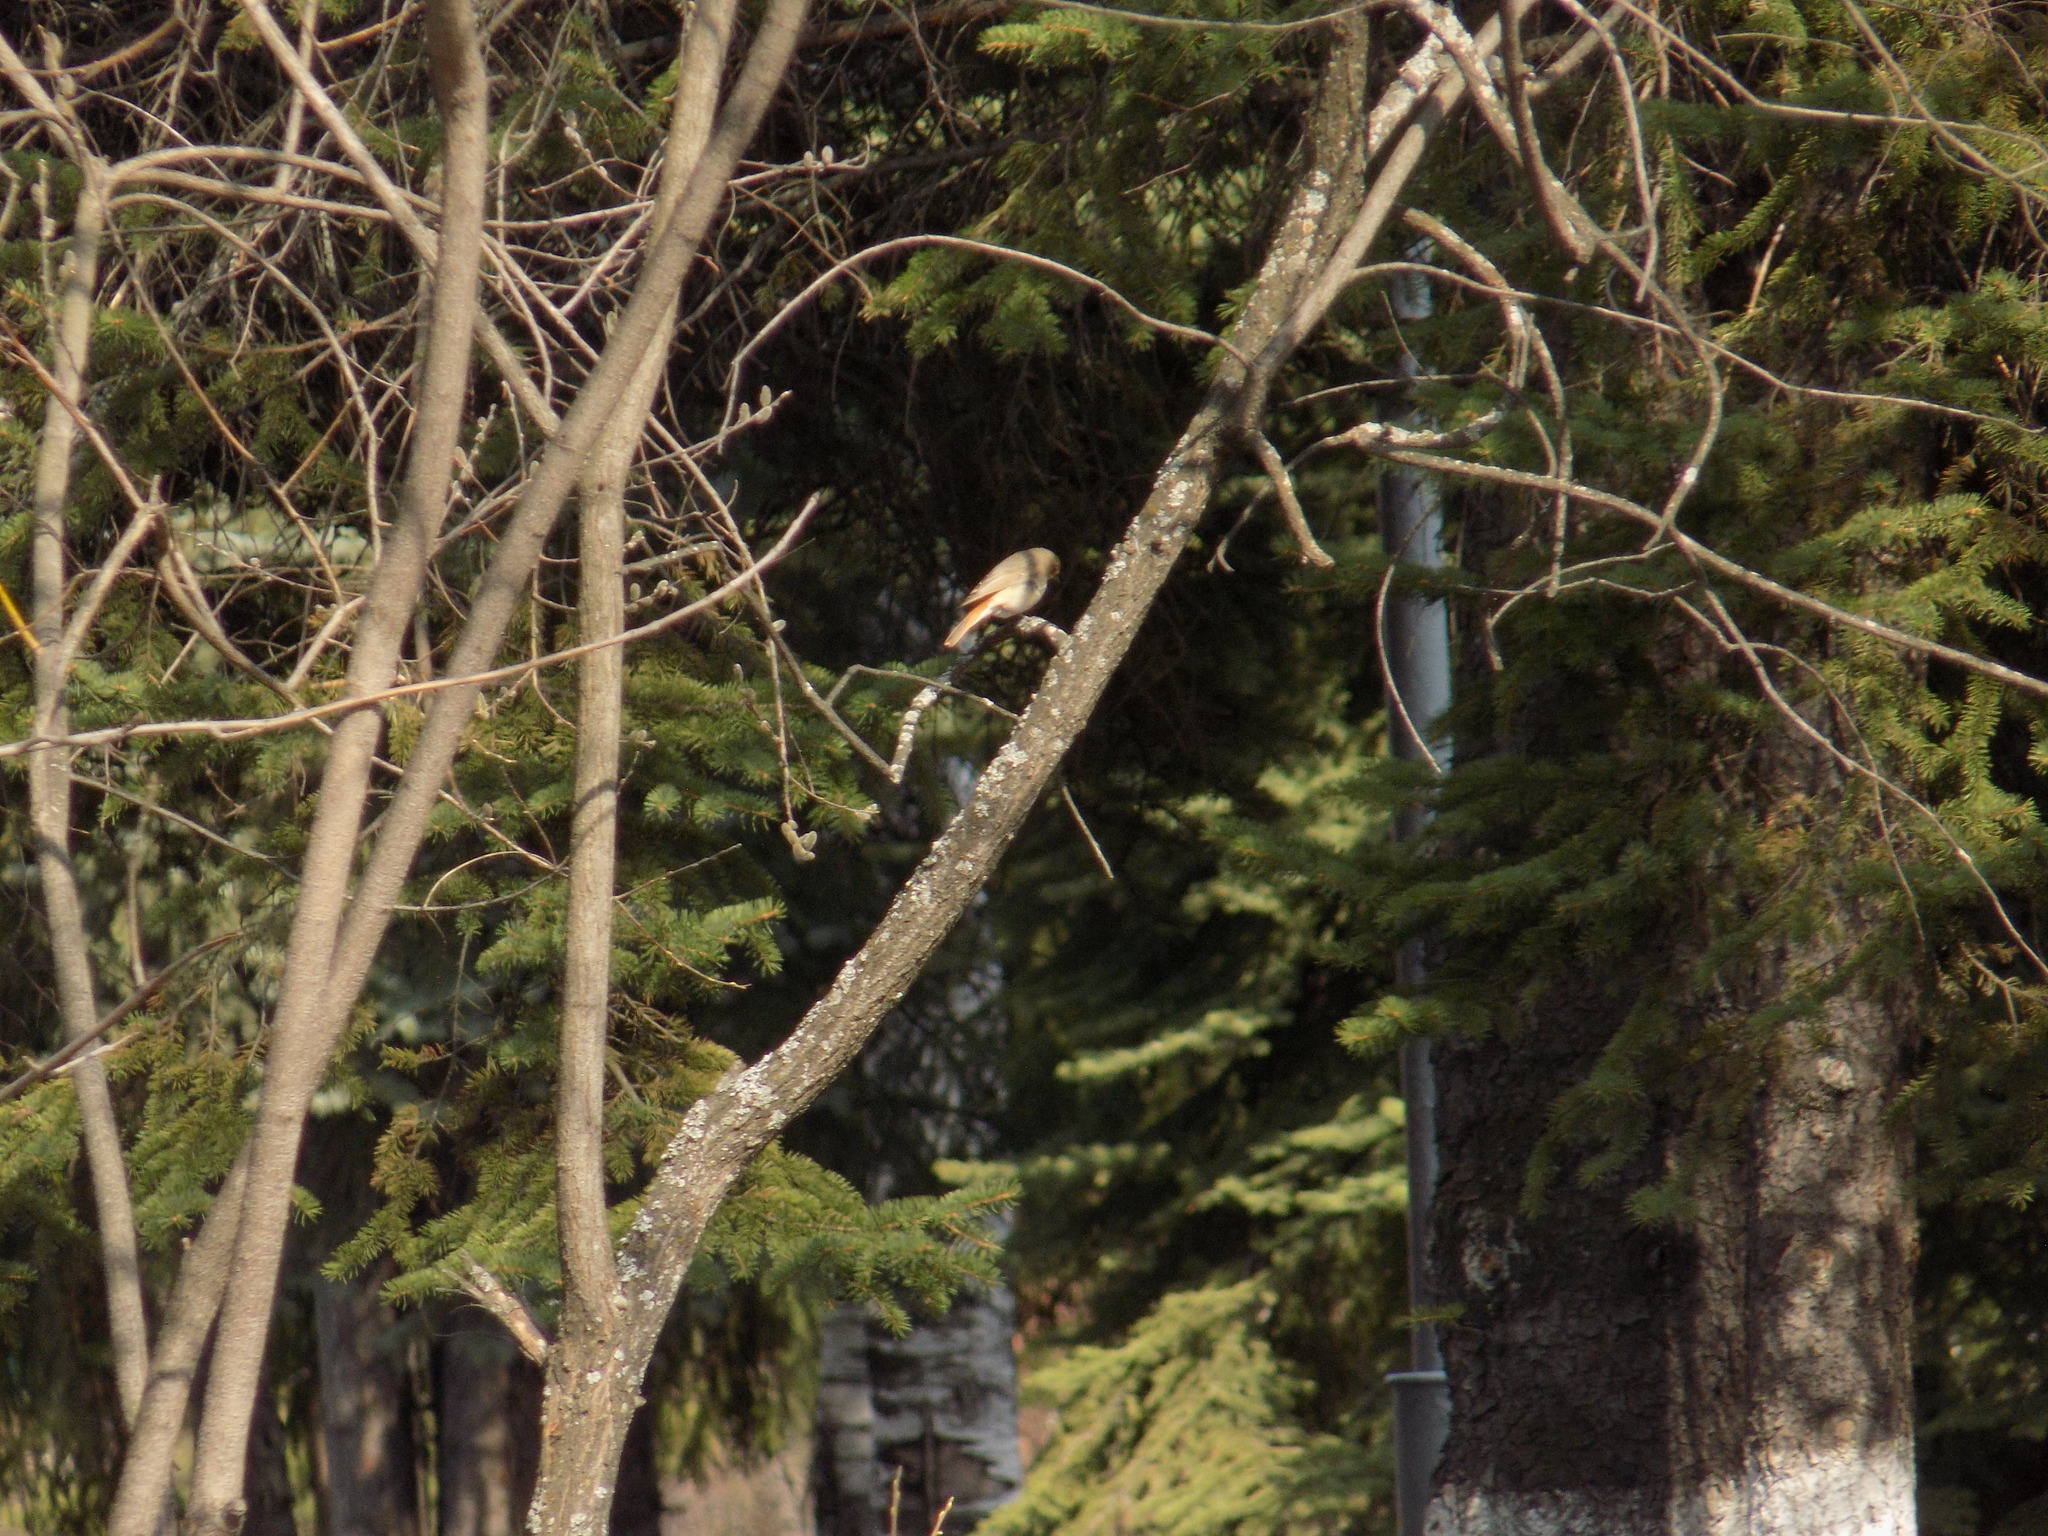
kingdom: Animalia
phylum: Chordata
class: Aves
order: Passeriformes
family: Muscicapidae
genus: Phoenicurus
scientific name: Phoenicurus phoenicurus
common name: Common redstart
